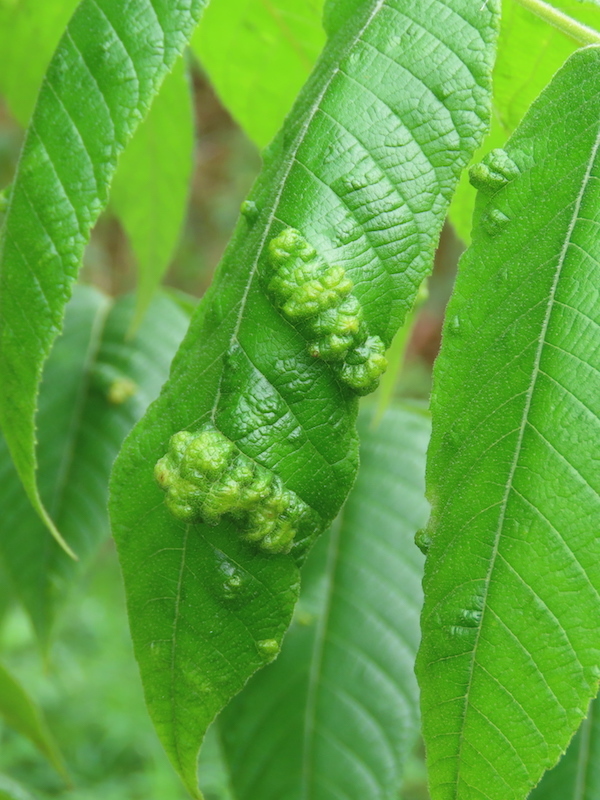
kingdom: Animalia
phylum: Arthropoda
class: Arachnida
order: Trombidiformes
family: Eriophyidae
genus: Aceria
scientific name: Aceria
